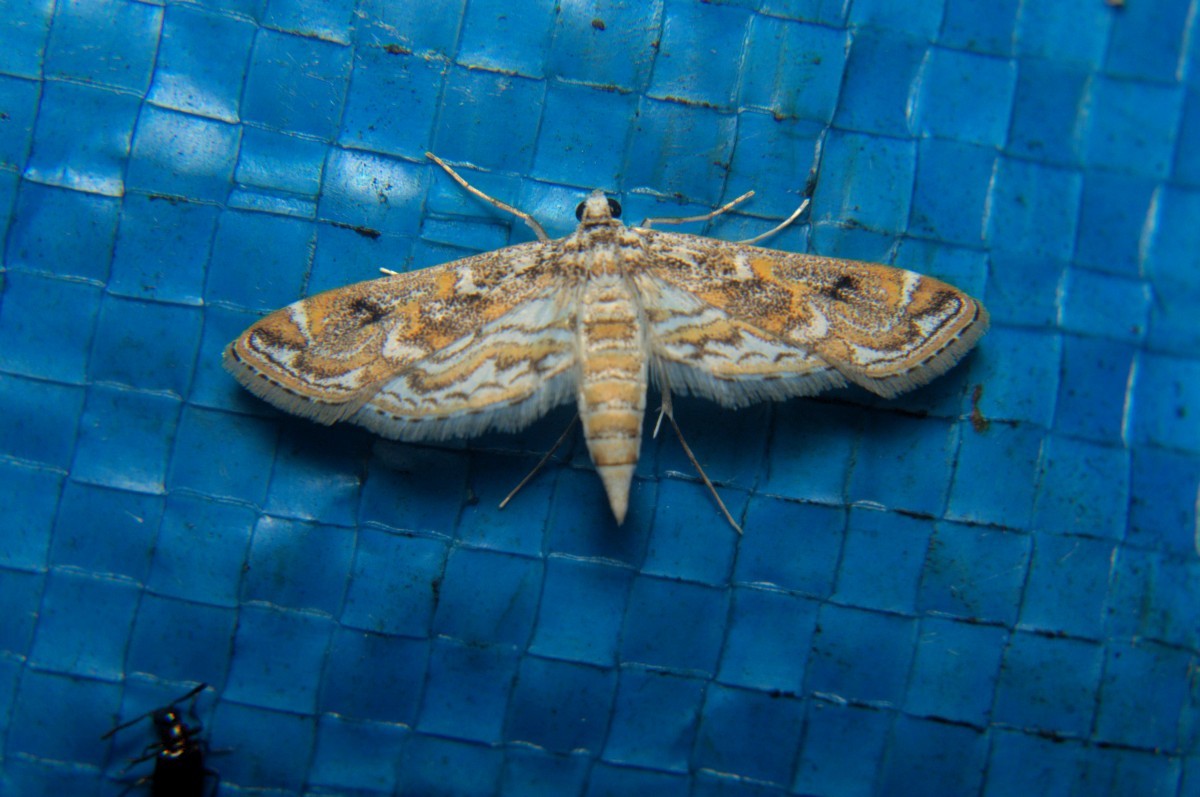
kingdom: Animalia
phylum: Arthropoda
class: Insecta
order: Lepidoptera
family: Crambidae
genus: Parapoynx
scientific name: Parapoynx diminutalis
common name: Hydrilla leafcutter
